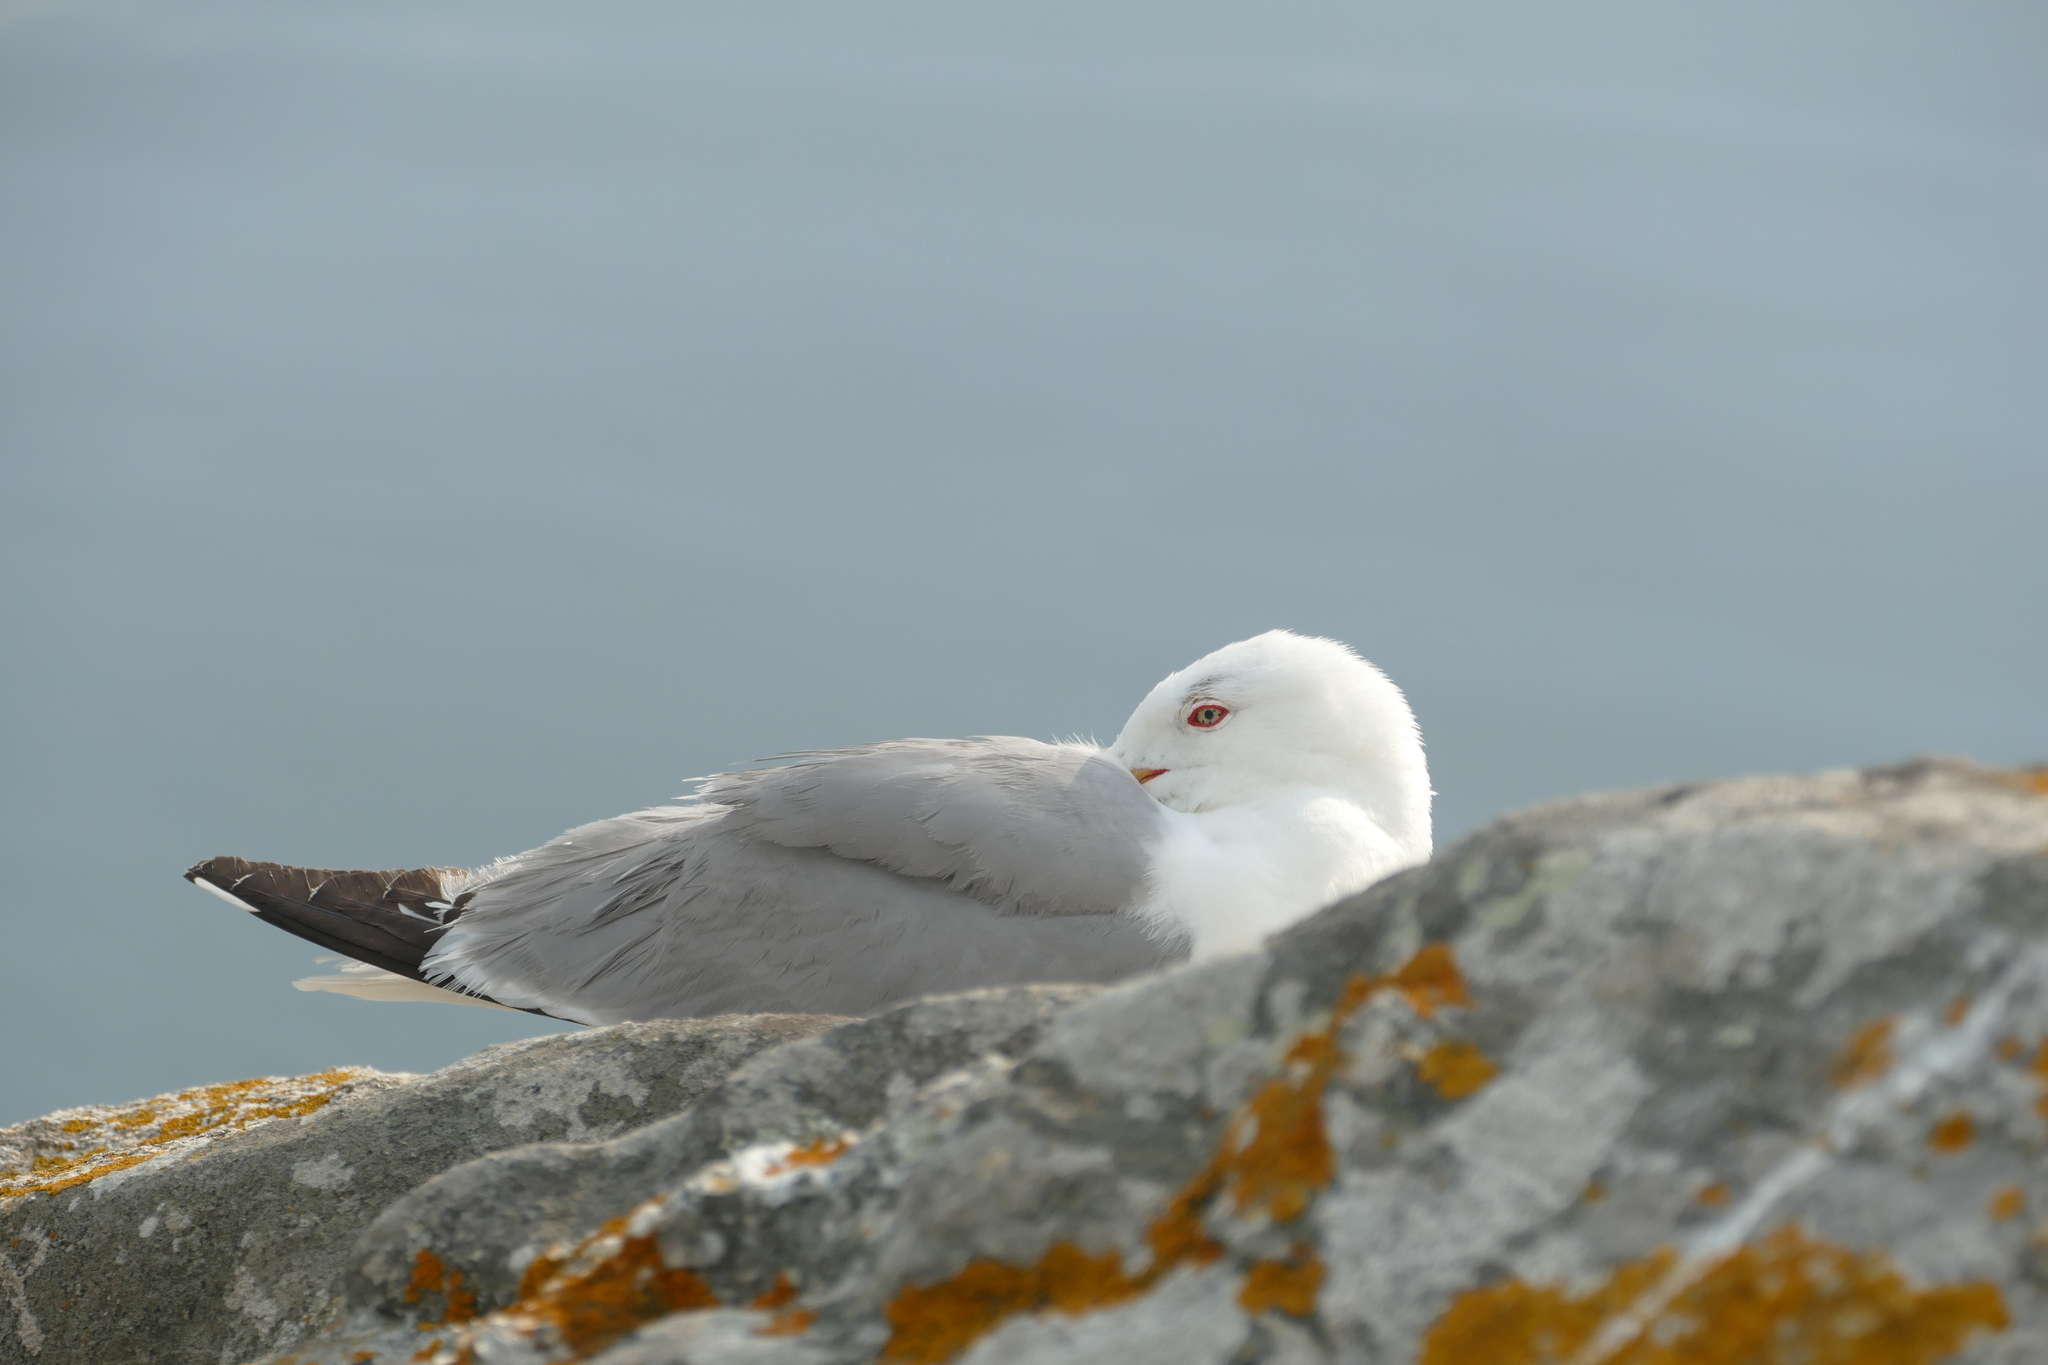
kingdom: Animalia
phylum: Chordata
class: Aves
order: Charadriiformes
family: Laridae
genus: Larus
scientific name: Larus michahellis
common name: Yellow-legged gull
